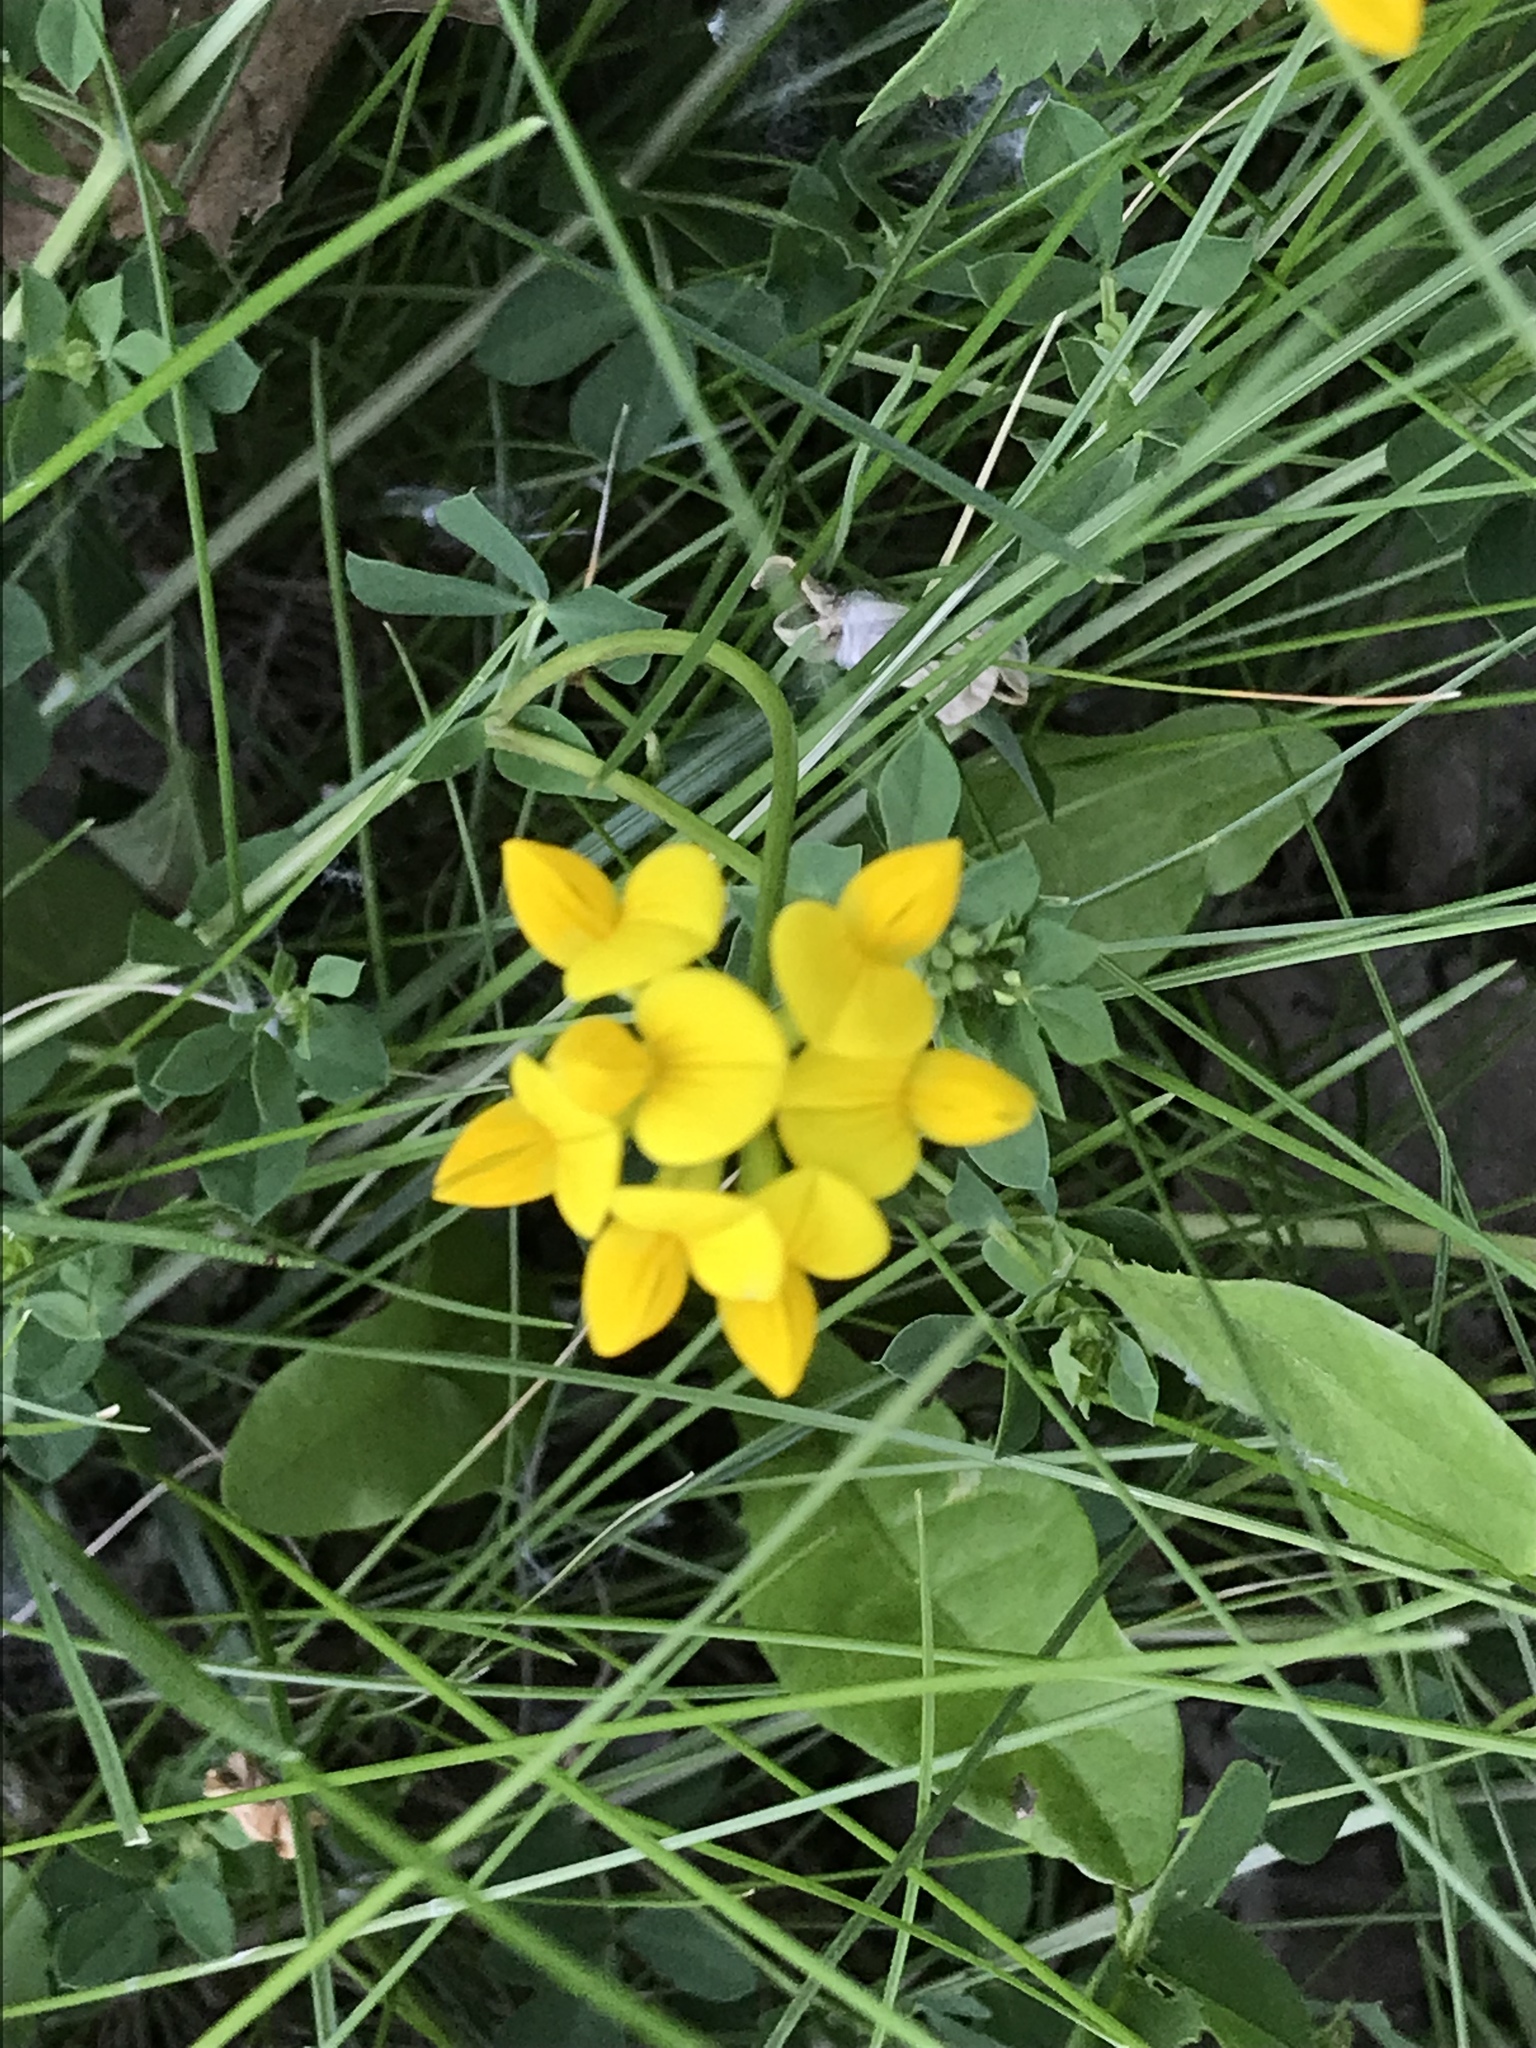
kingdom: Plantae
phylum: Tracheophyta
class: Magnoliopsida
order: Fabales
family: Fabaceae
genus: Lotus
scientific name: Lotus corniculatus
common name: Common bird's-foot-trefoil
